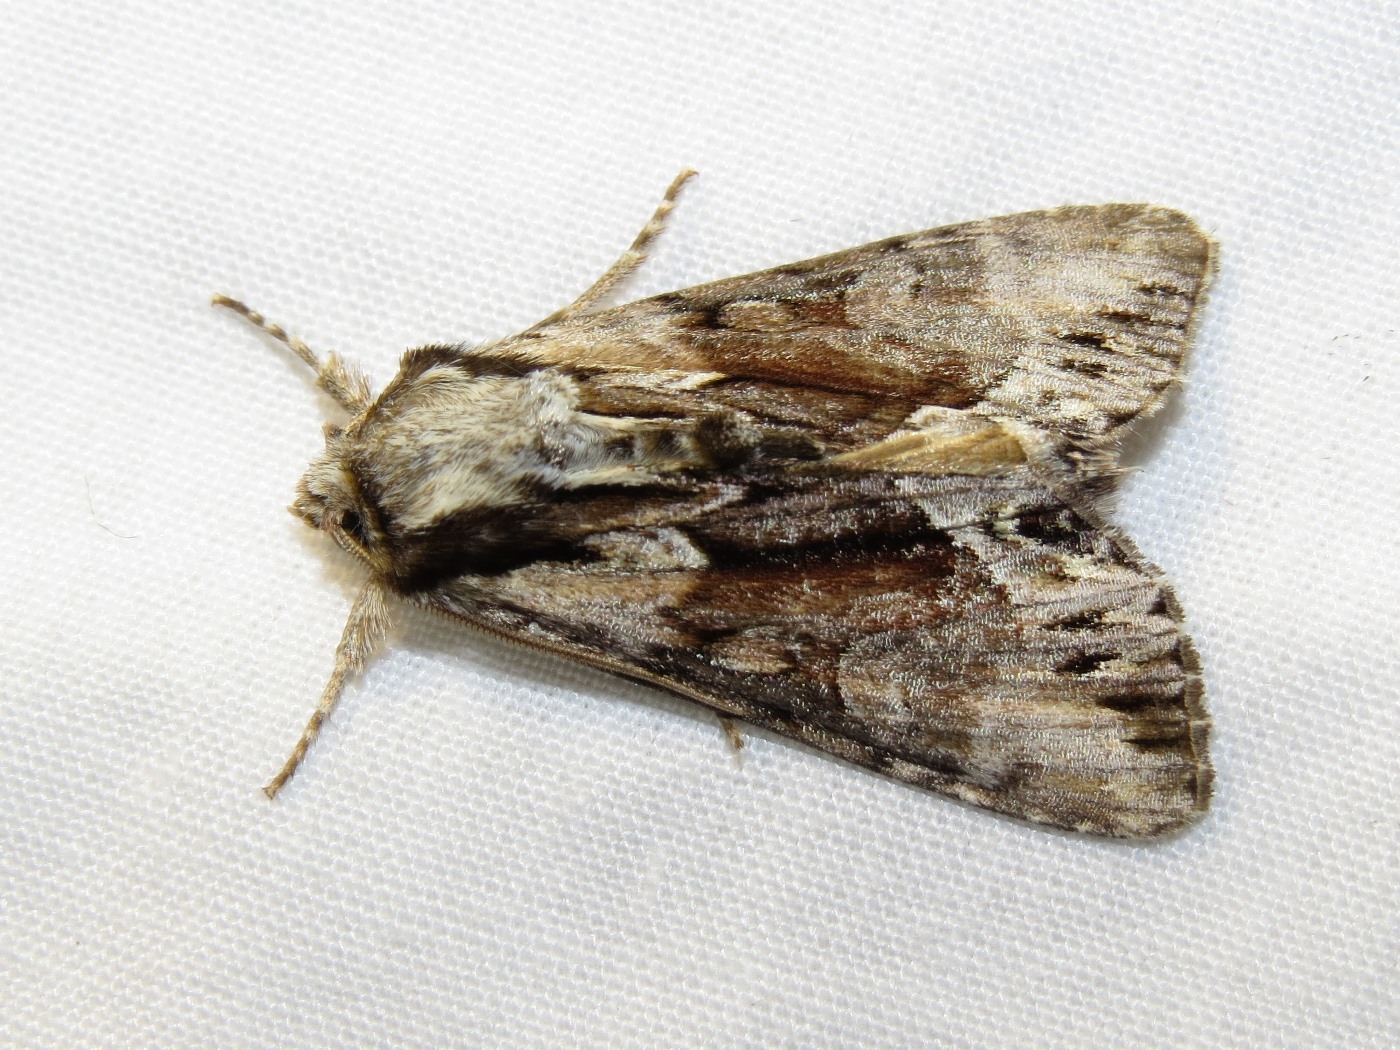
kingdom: Animalia
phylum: Arthropoda
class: Insecta
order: Lepidoptera
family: Noctuidae
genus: Hyppa
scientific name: Hyppa contrasta
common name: Summer hyppa moth
